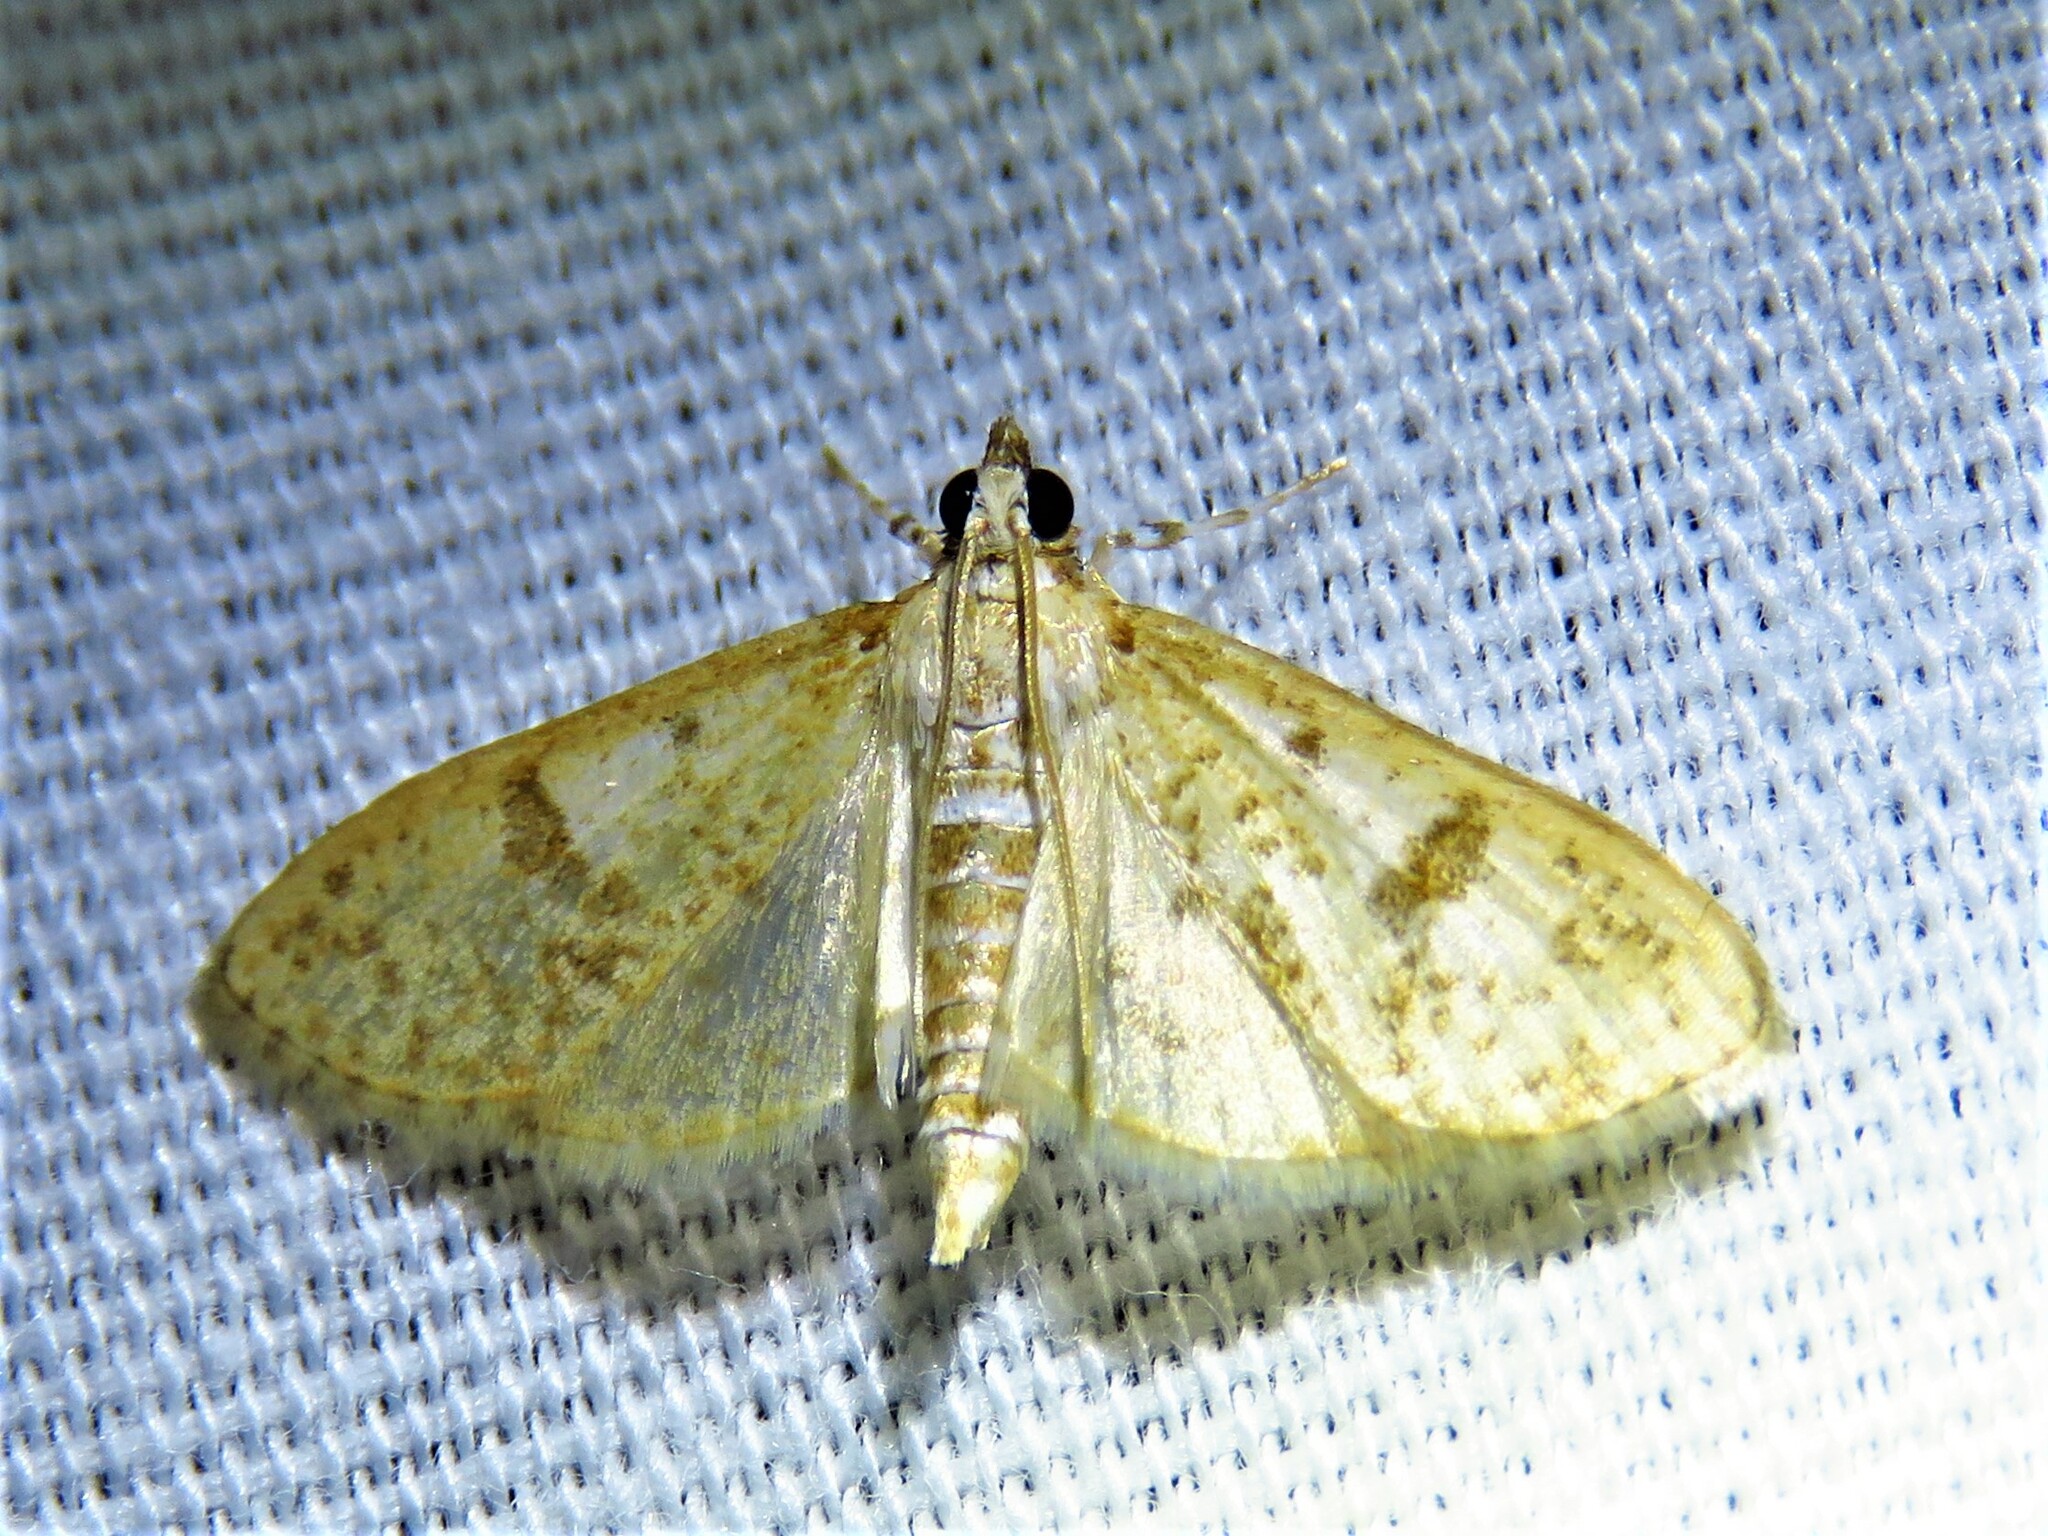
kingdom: Animalia
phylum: Arthropoda
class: Insecta
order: Lepidoptera
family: Crambidae
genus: Palpita
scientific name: Palpita freemanalis
